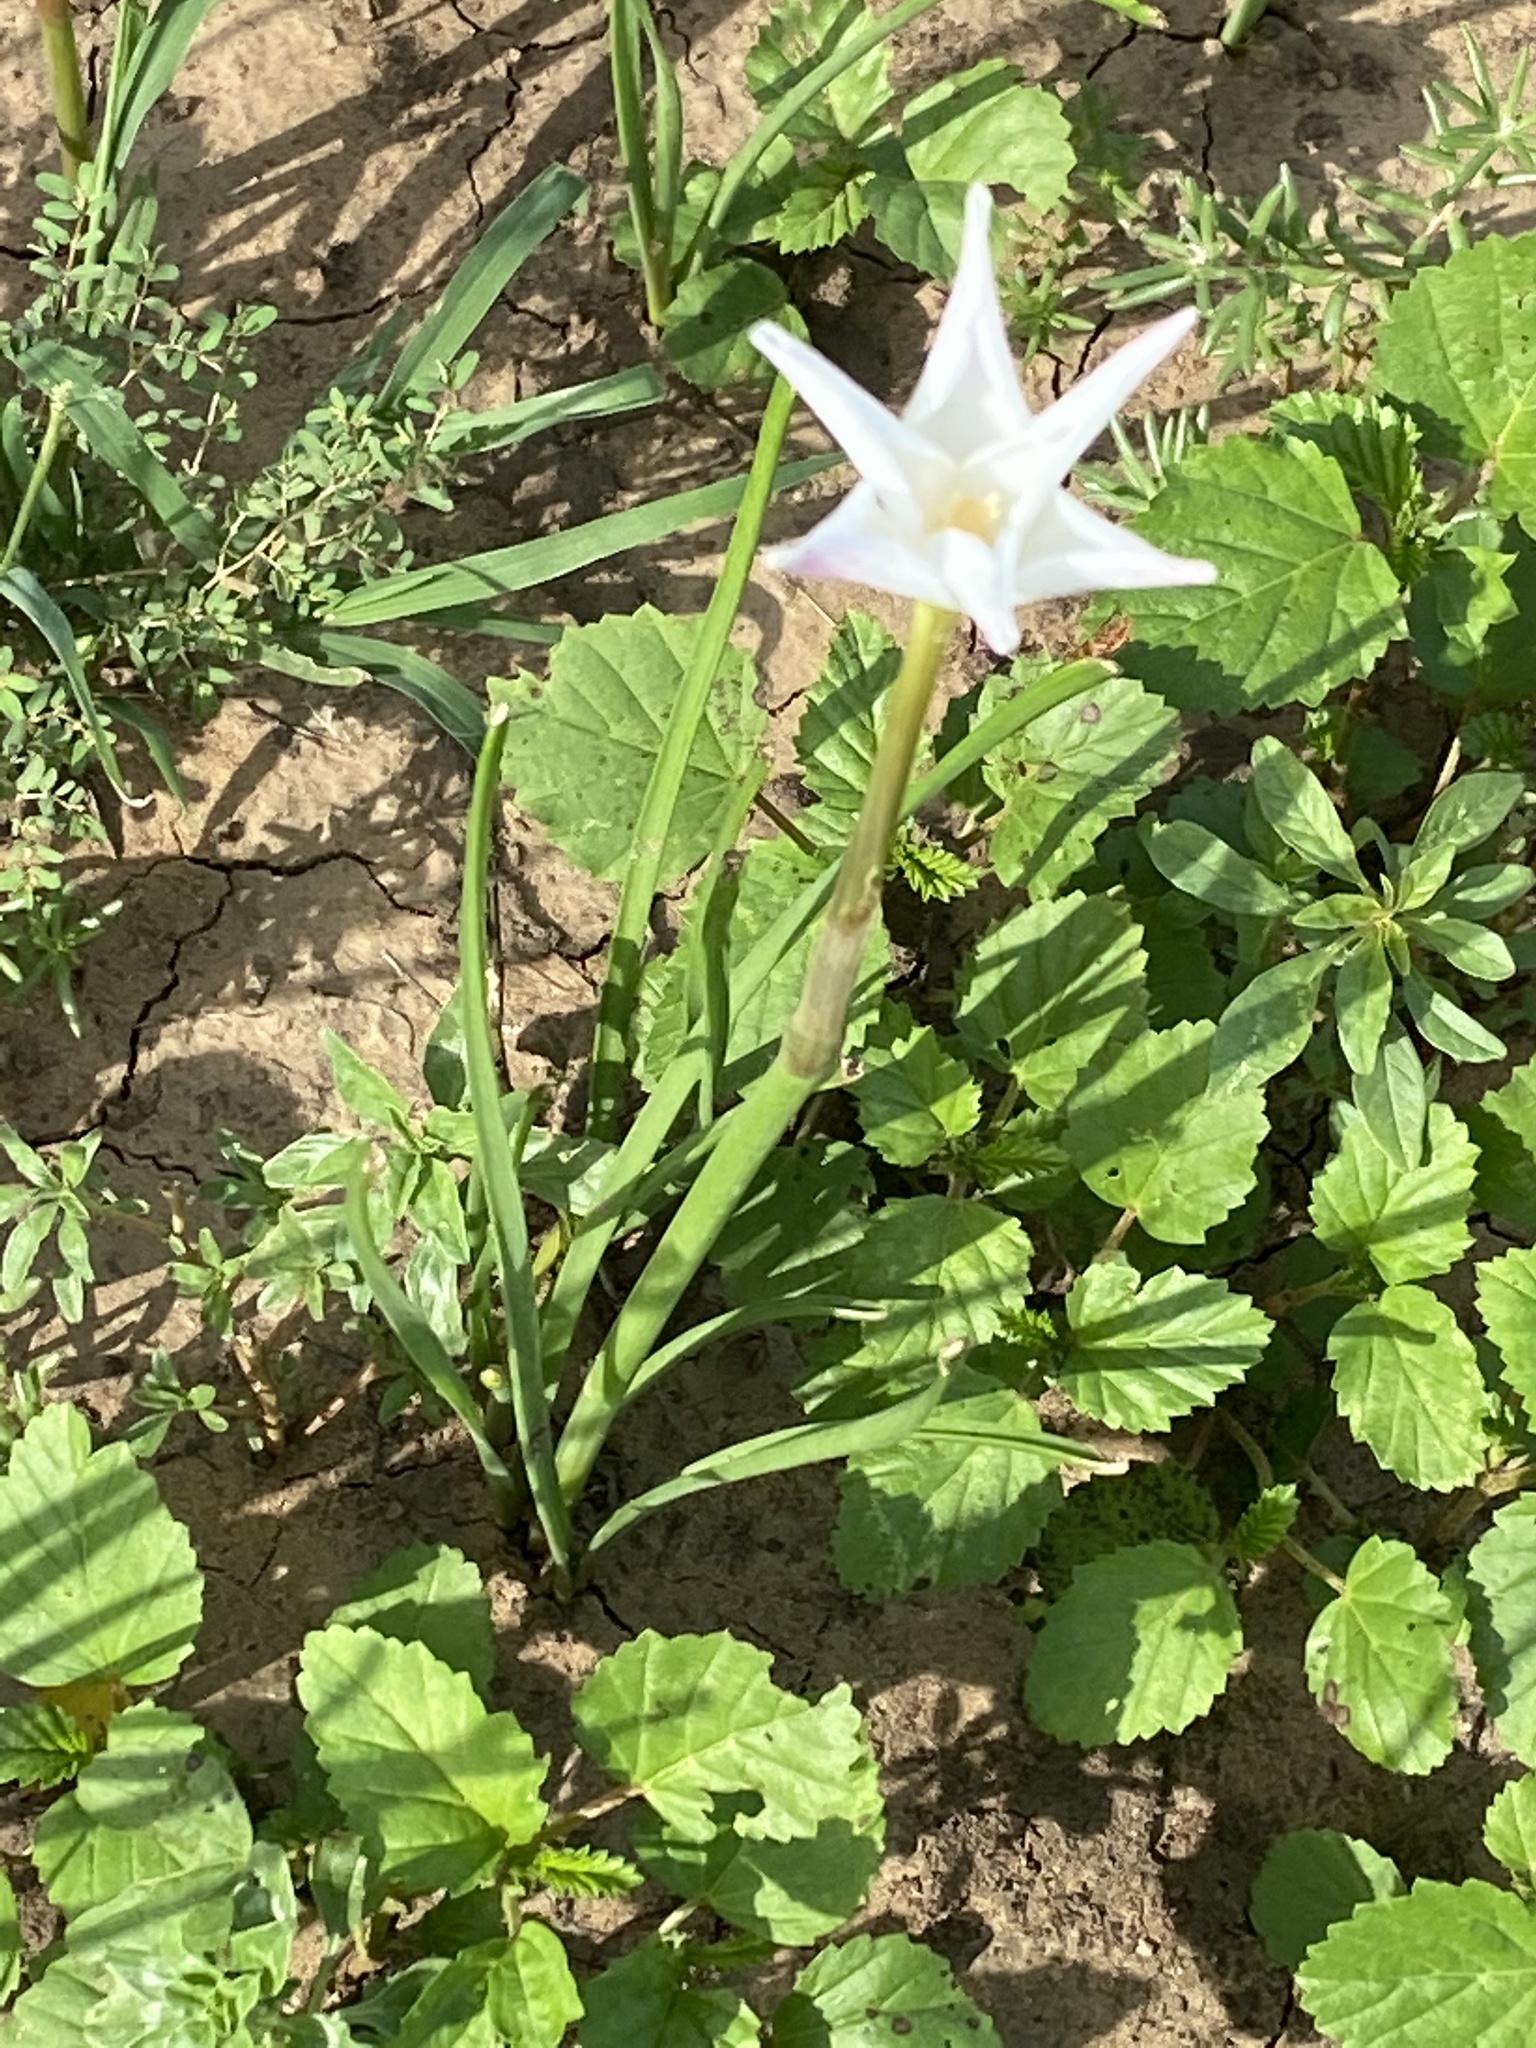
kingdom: Plantae
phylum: Tracheophyta
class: Liliopsida
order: Asparagales
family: Amaryllidaceae
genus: Zephyranthes
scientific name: Zephyranthes chlorosolen
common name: Evening rain-lily
